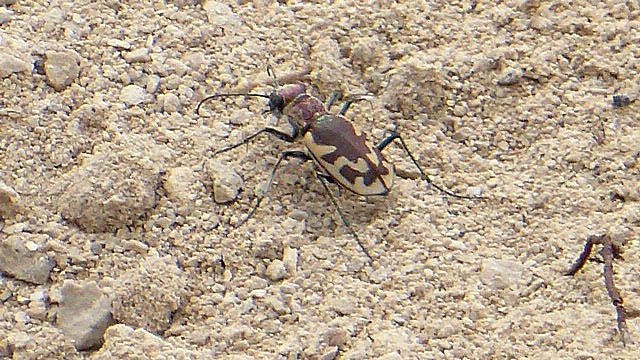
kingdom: Animalia
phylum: Arthropoda
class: Insecta
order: Coleoptera
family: Carabidae
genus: Cicindela
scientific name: Cicindela formosa
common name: Big sand tiger beetle
